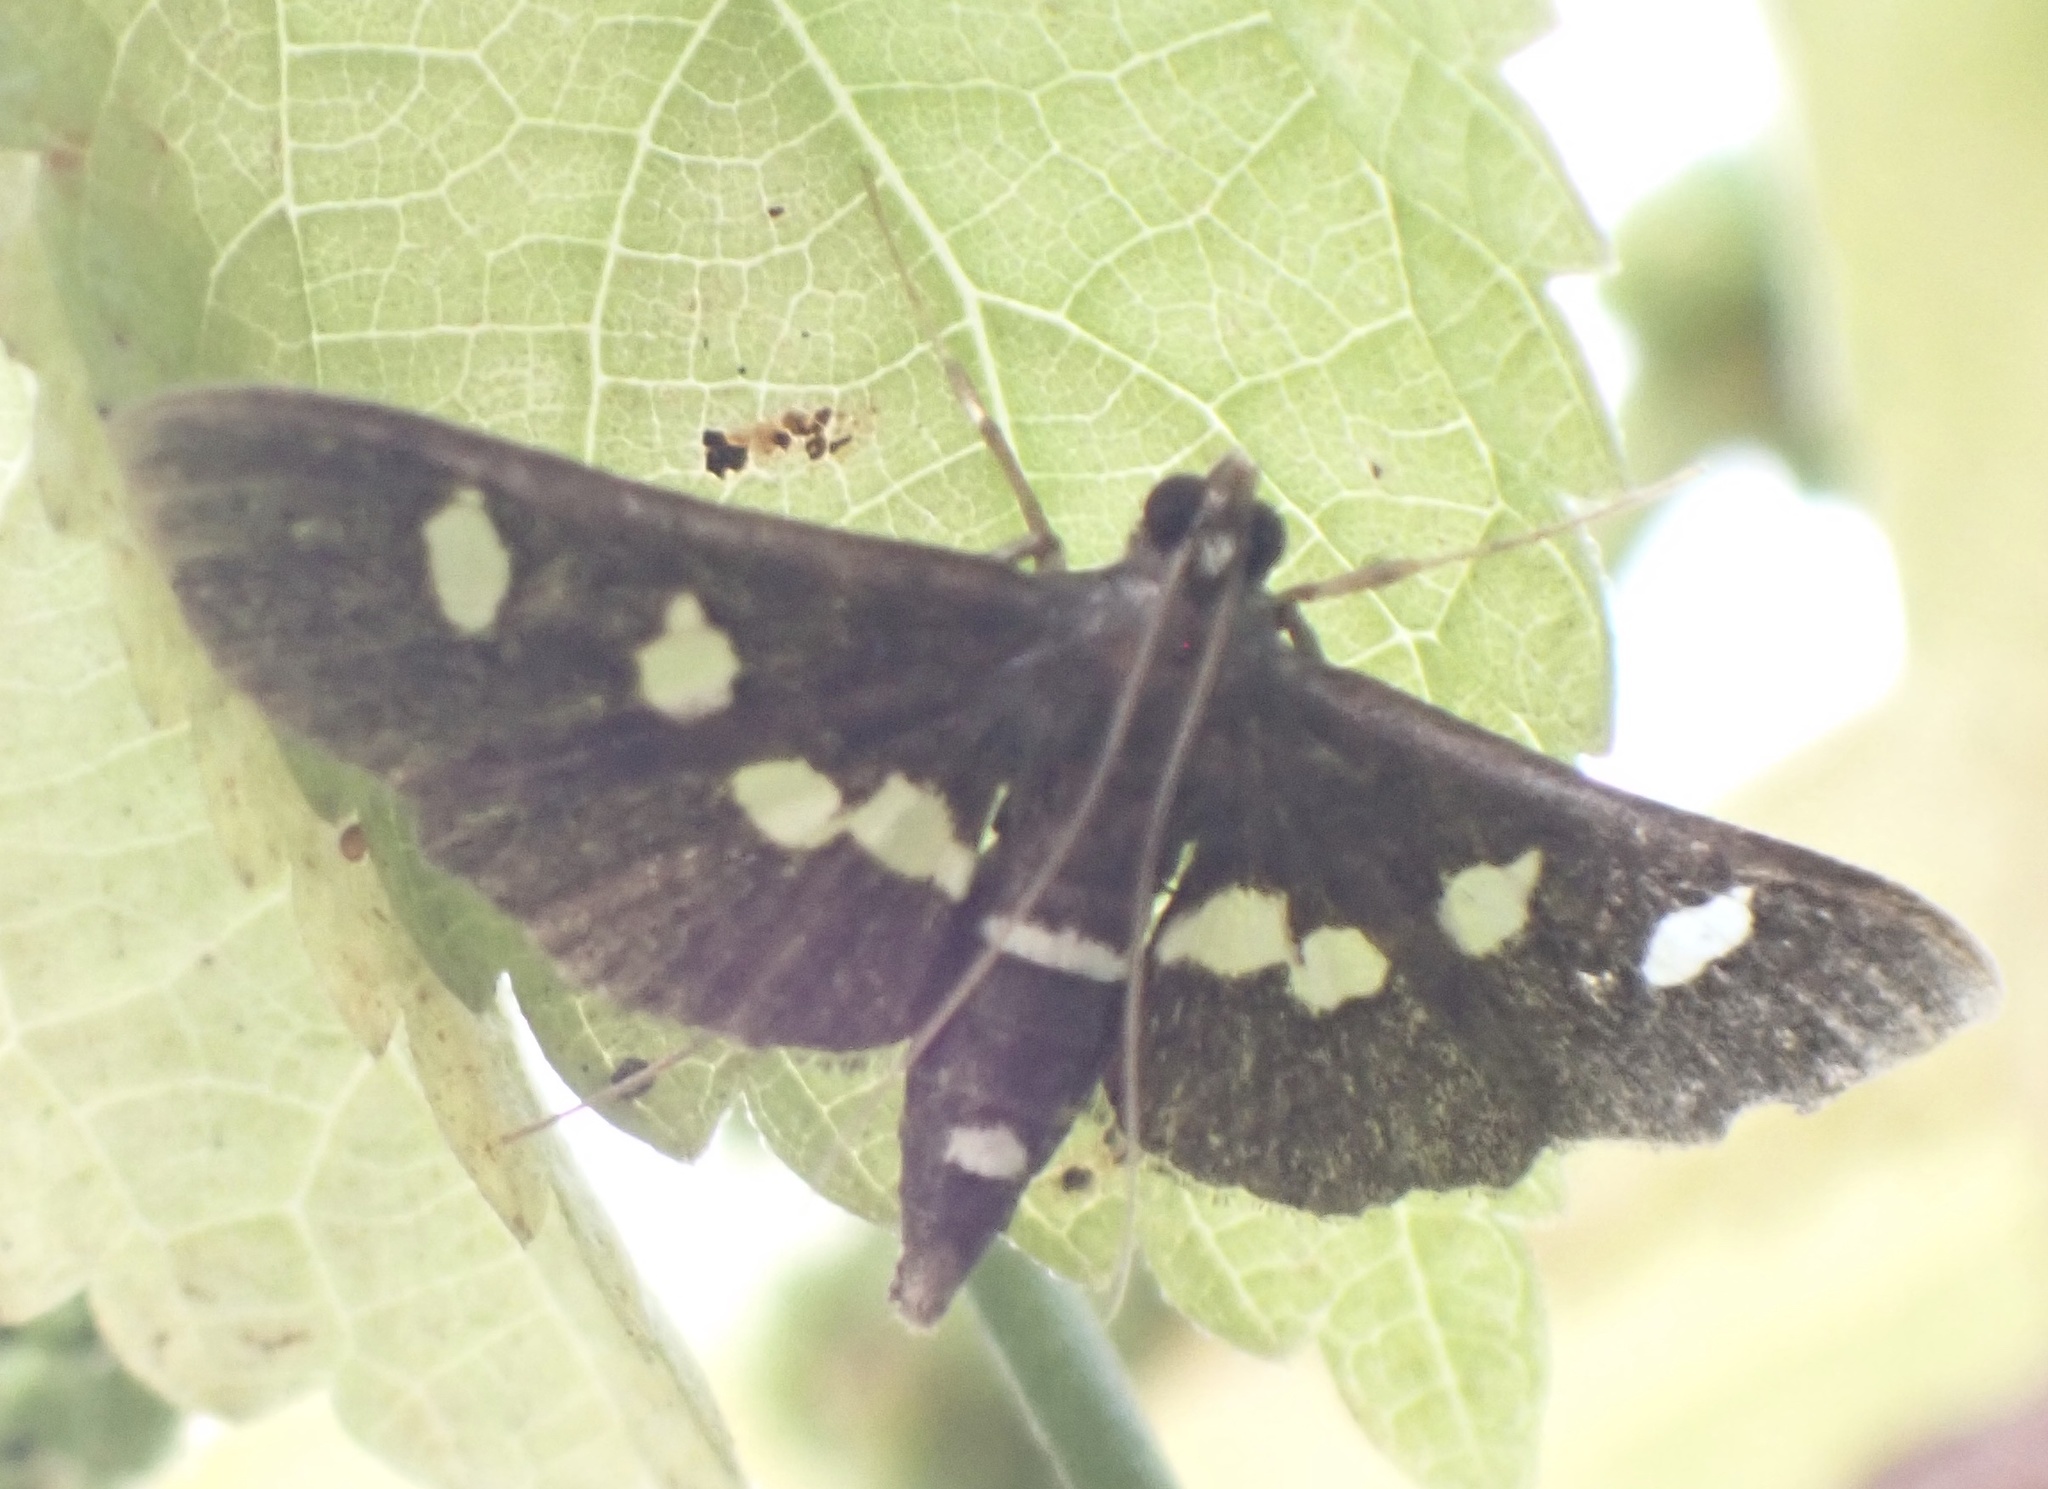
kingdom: Animalia
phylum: Arthropoda
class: Insecta
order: Lepidoptera
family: Crambidae
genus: Desmia
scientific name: Desmia
